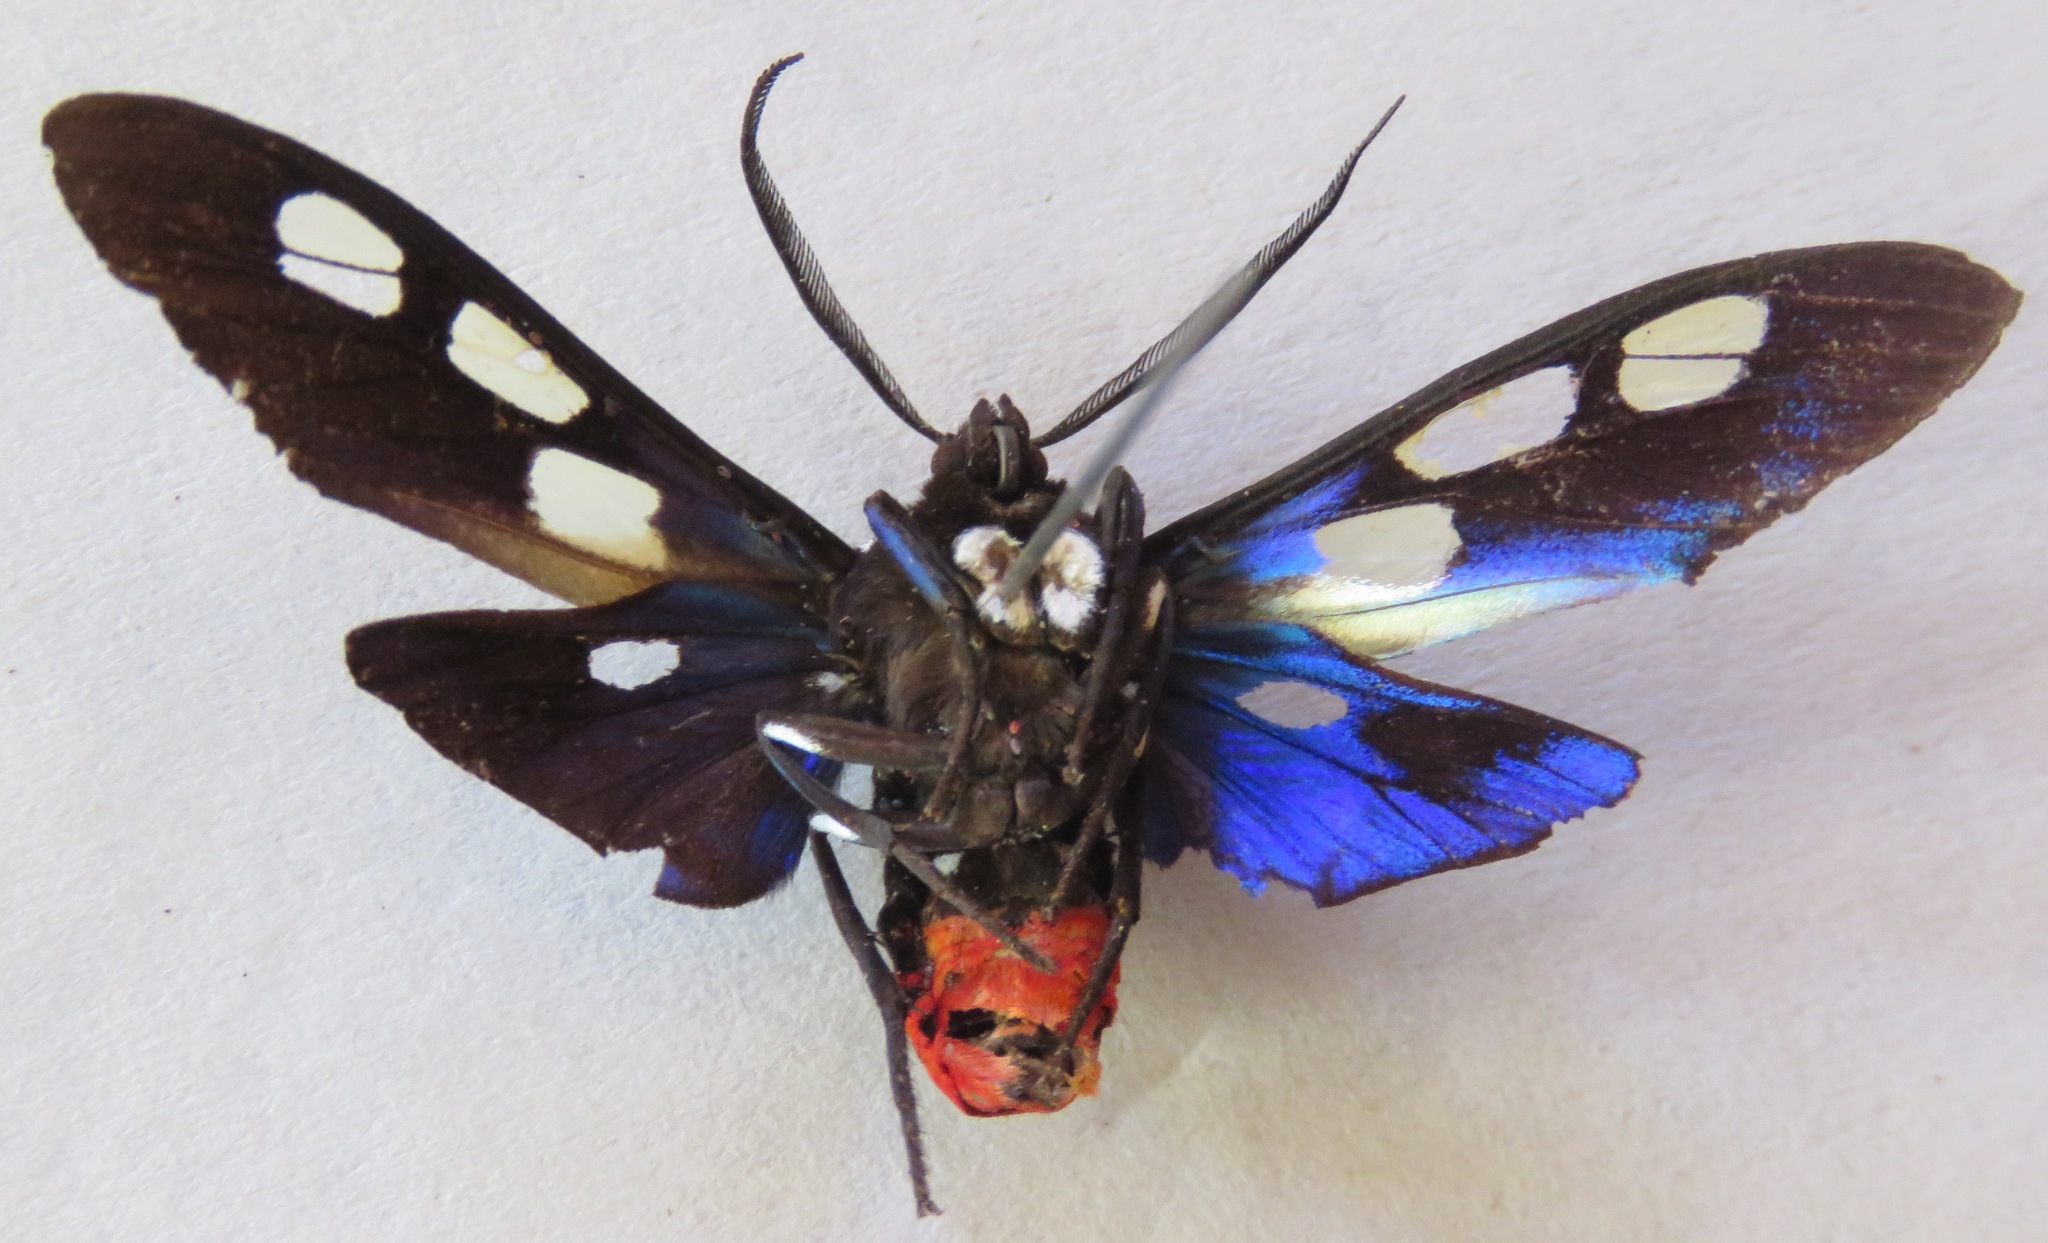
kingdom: Animalia
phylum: Arthropoda
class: Insecta
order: Lepidoptera
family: Erebidae
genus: Procalypta
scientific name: Procalypta subcyanea
